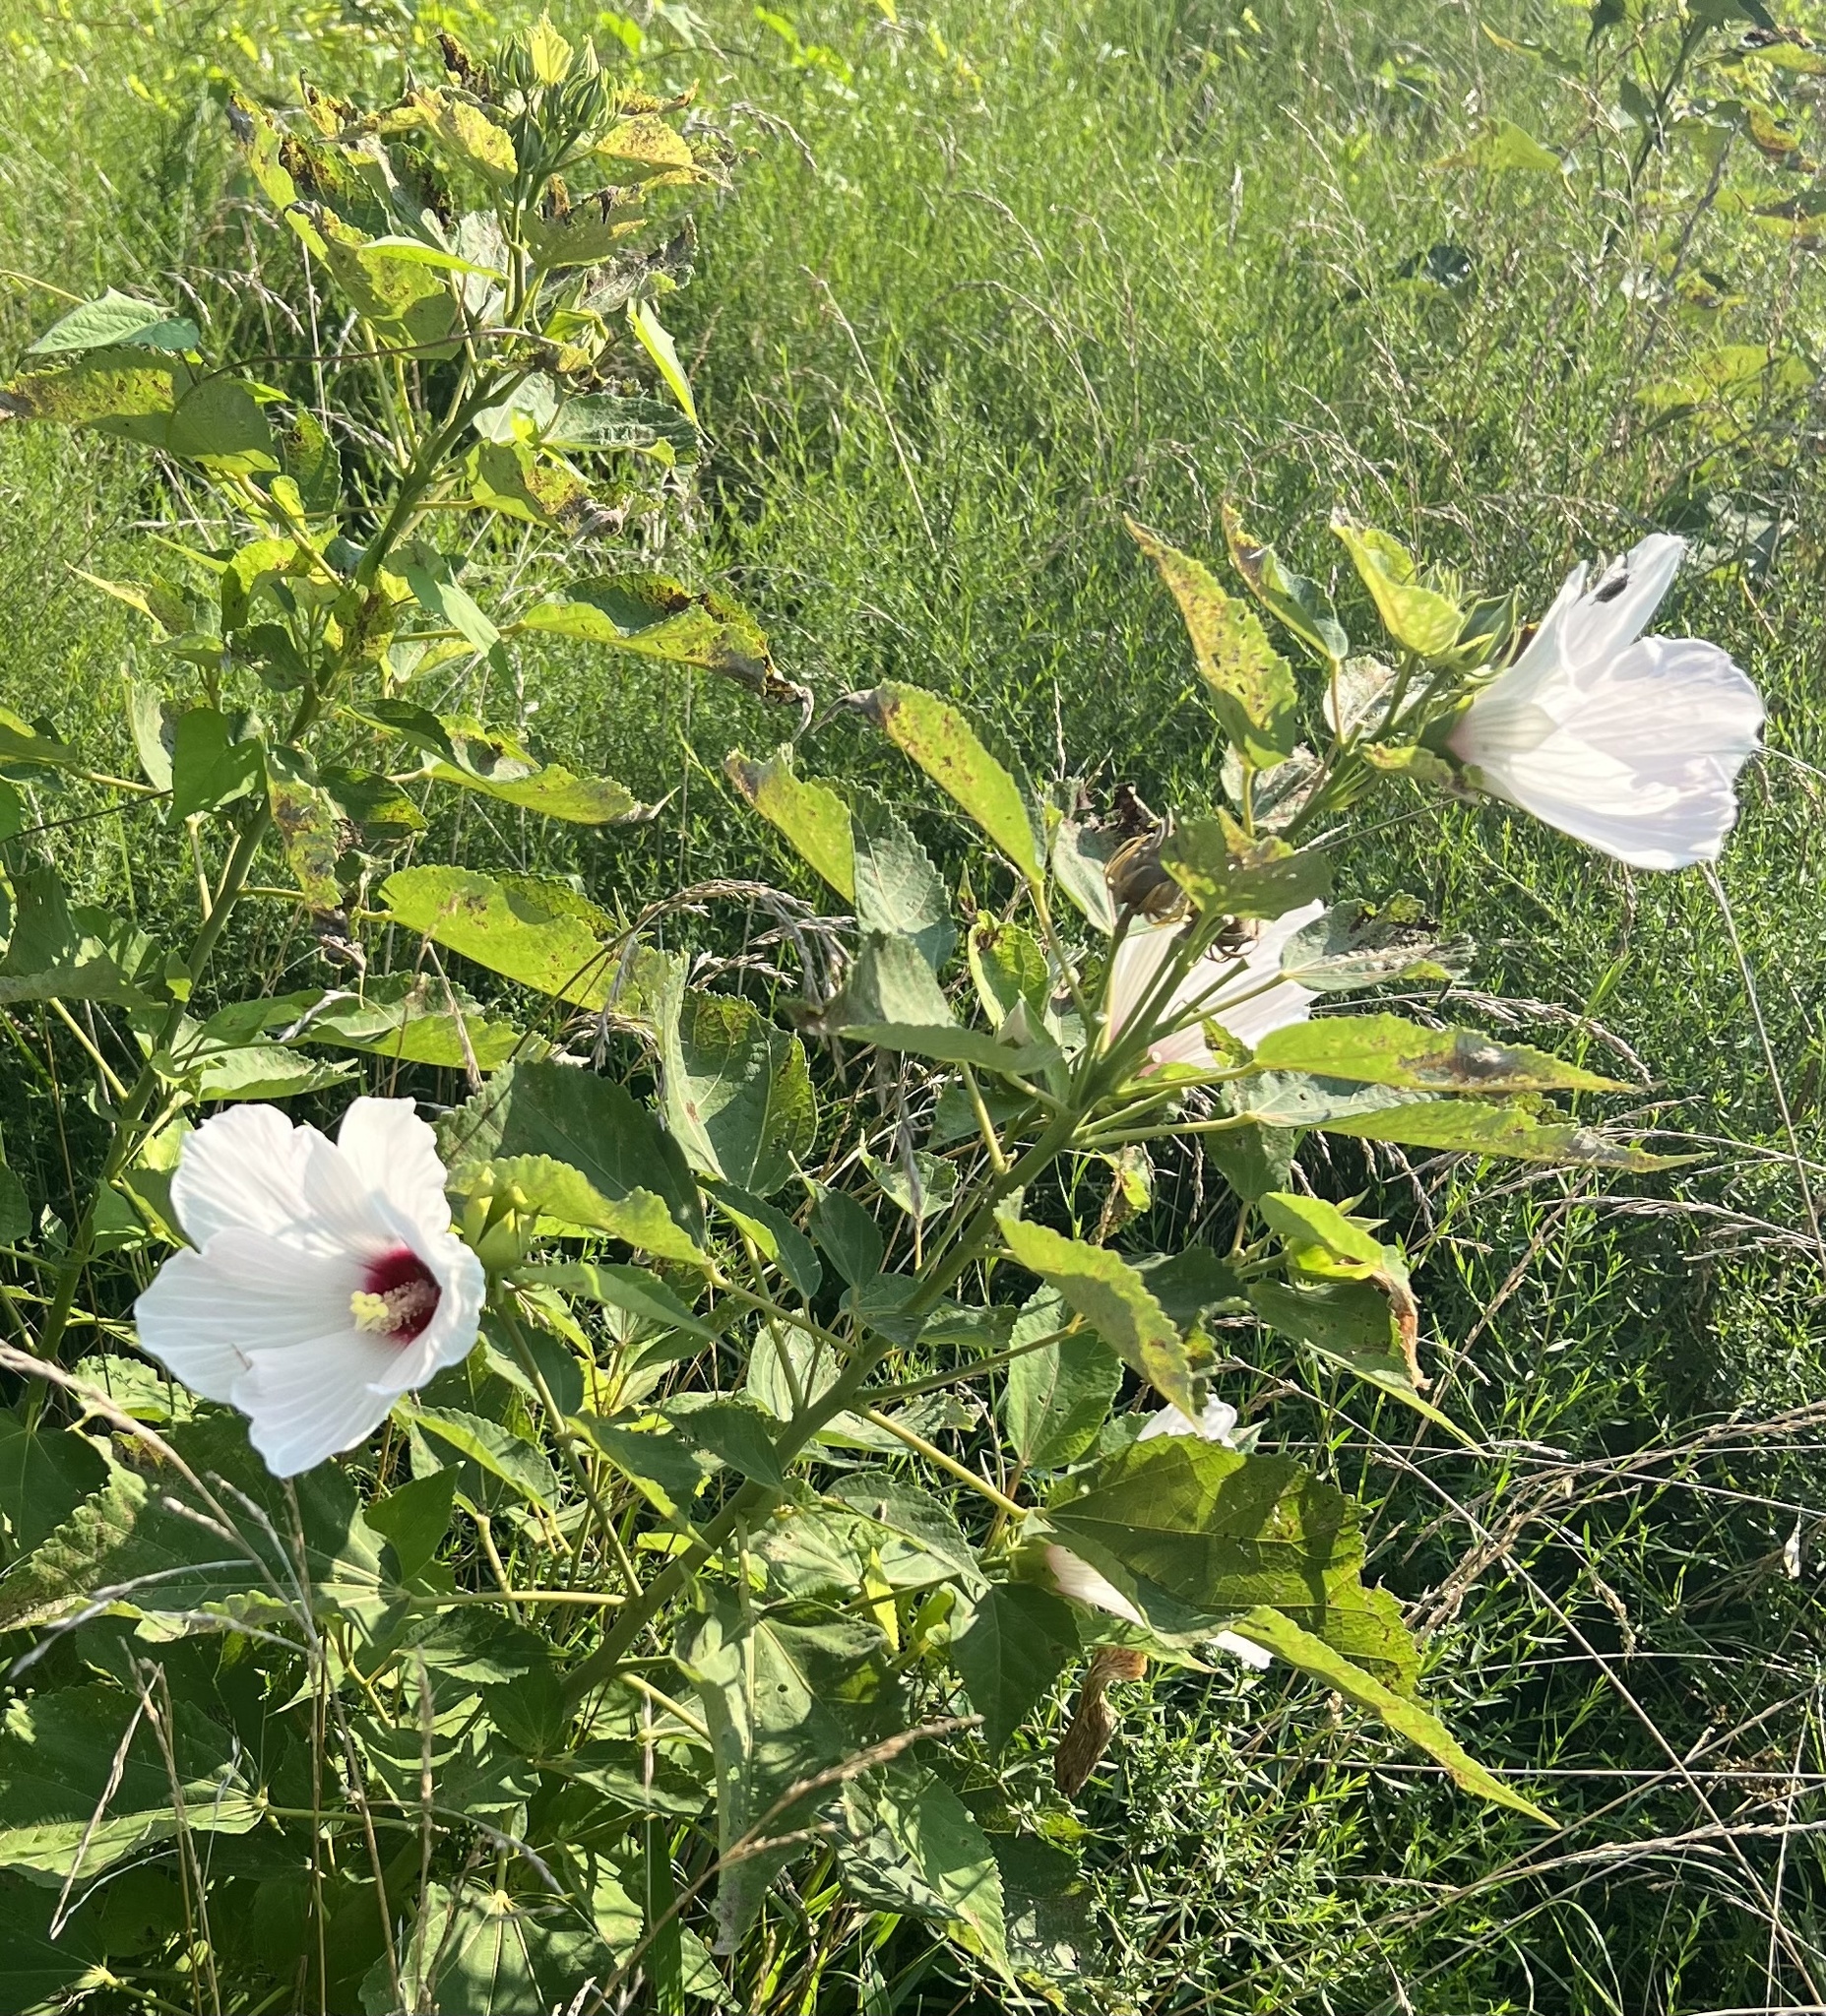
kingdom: Plantae
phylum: Tracheophyta
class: Magnoliopsida
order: Malvales
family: Malvaceae
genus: Hibiscus
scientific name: Hibiscus moscheutos
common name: Common rose-mallow
